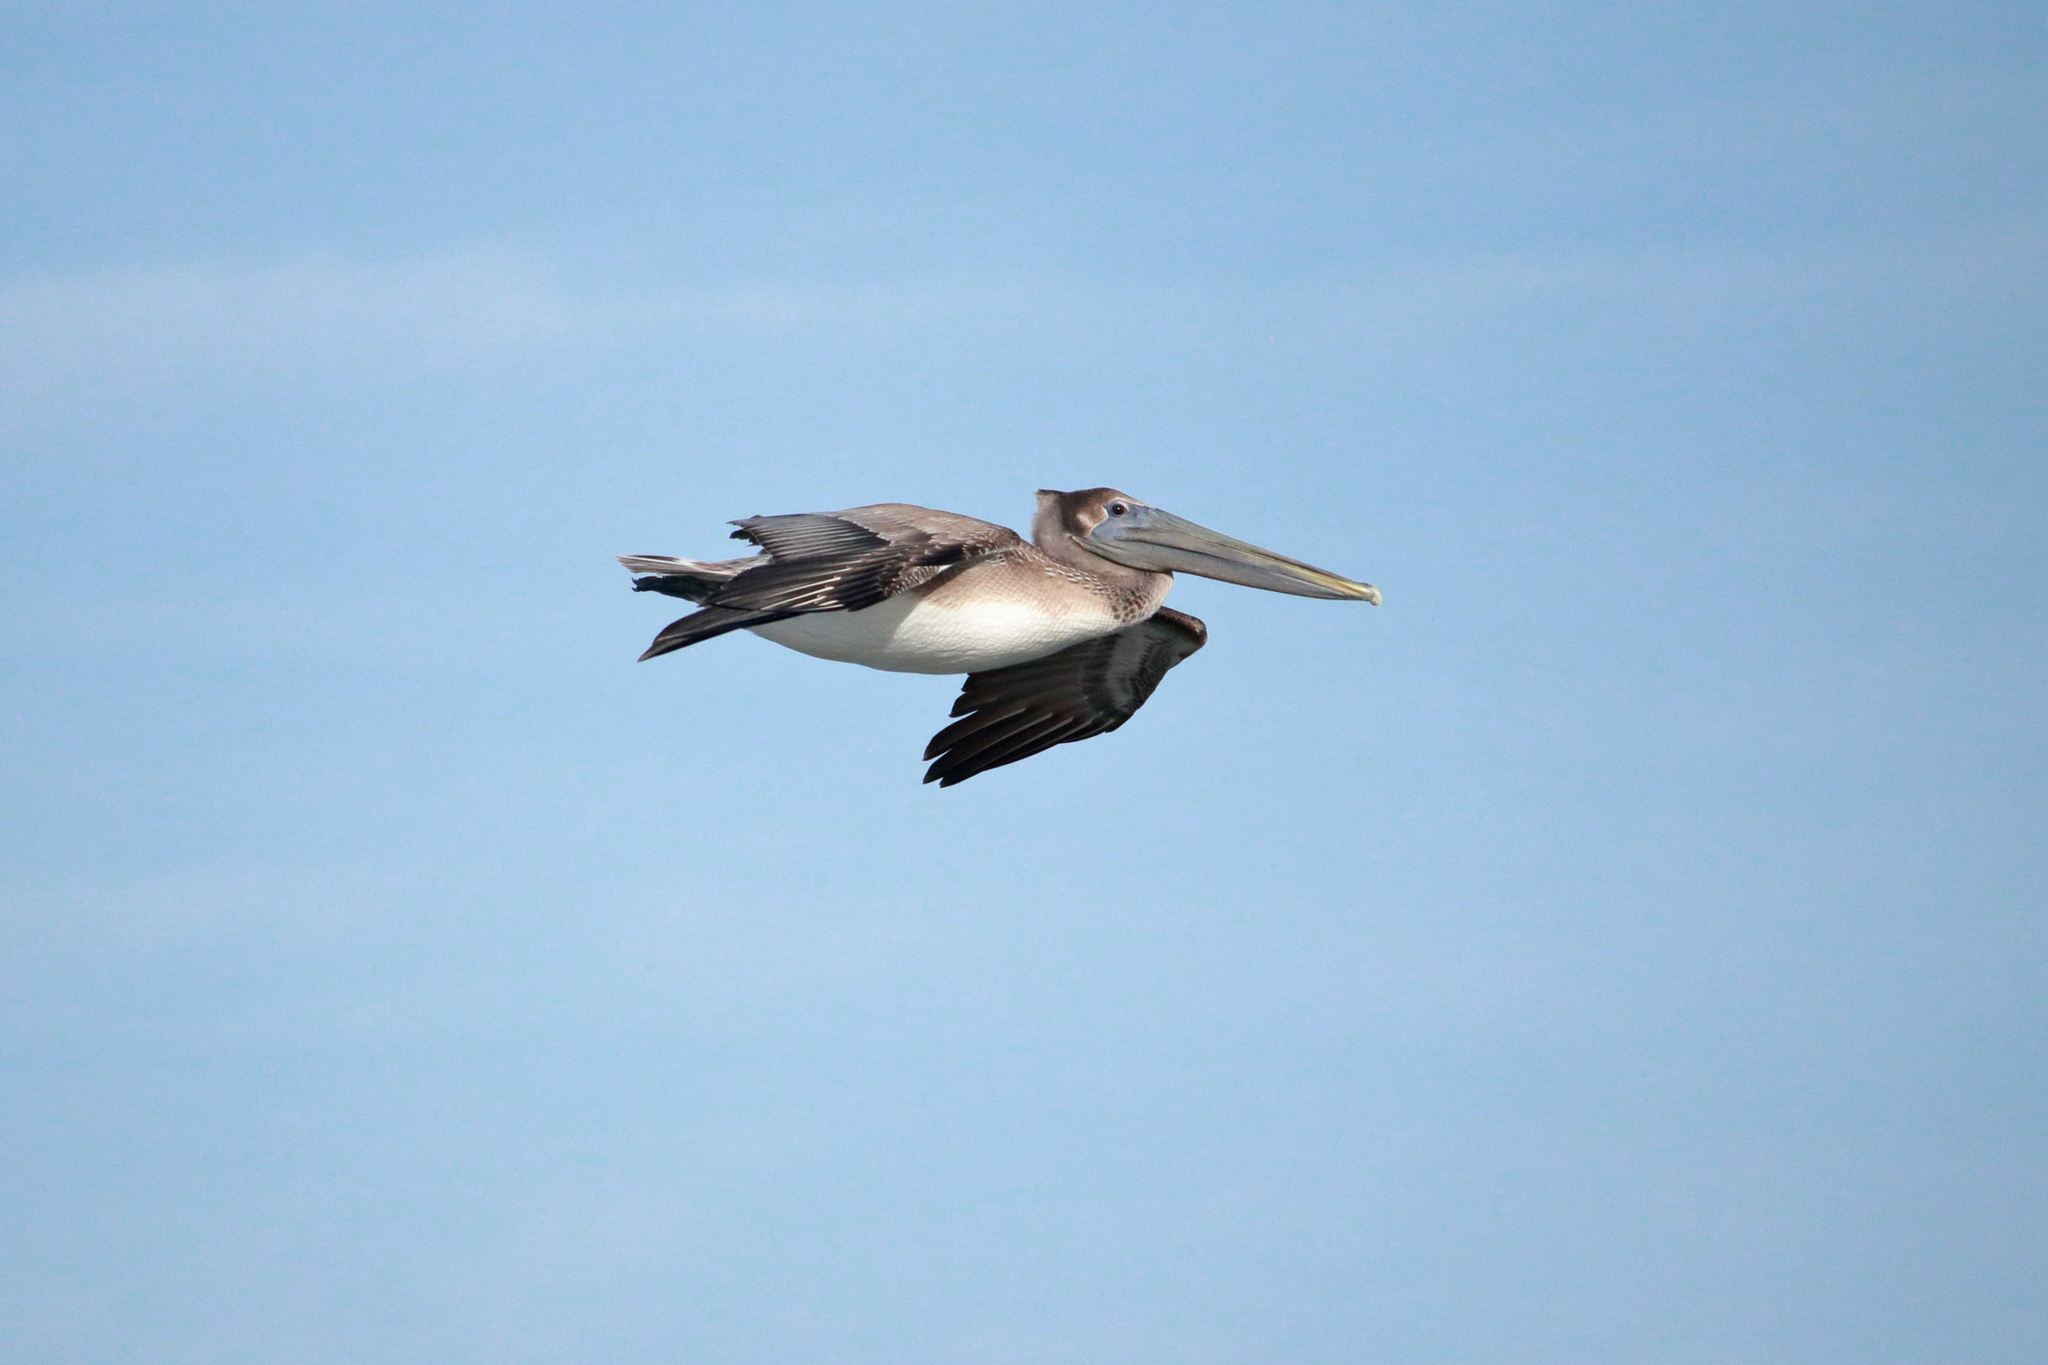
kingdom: Animalia
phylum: Chordata
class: Aves
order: Pelecaniformes
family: Pelecanidae
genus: Pelecanus
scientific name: Pelecanus occidentalis
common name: Brown pelican
